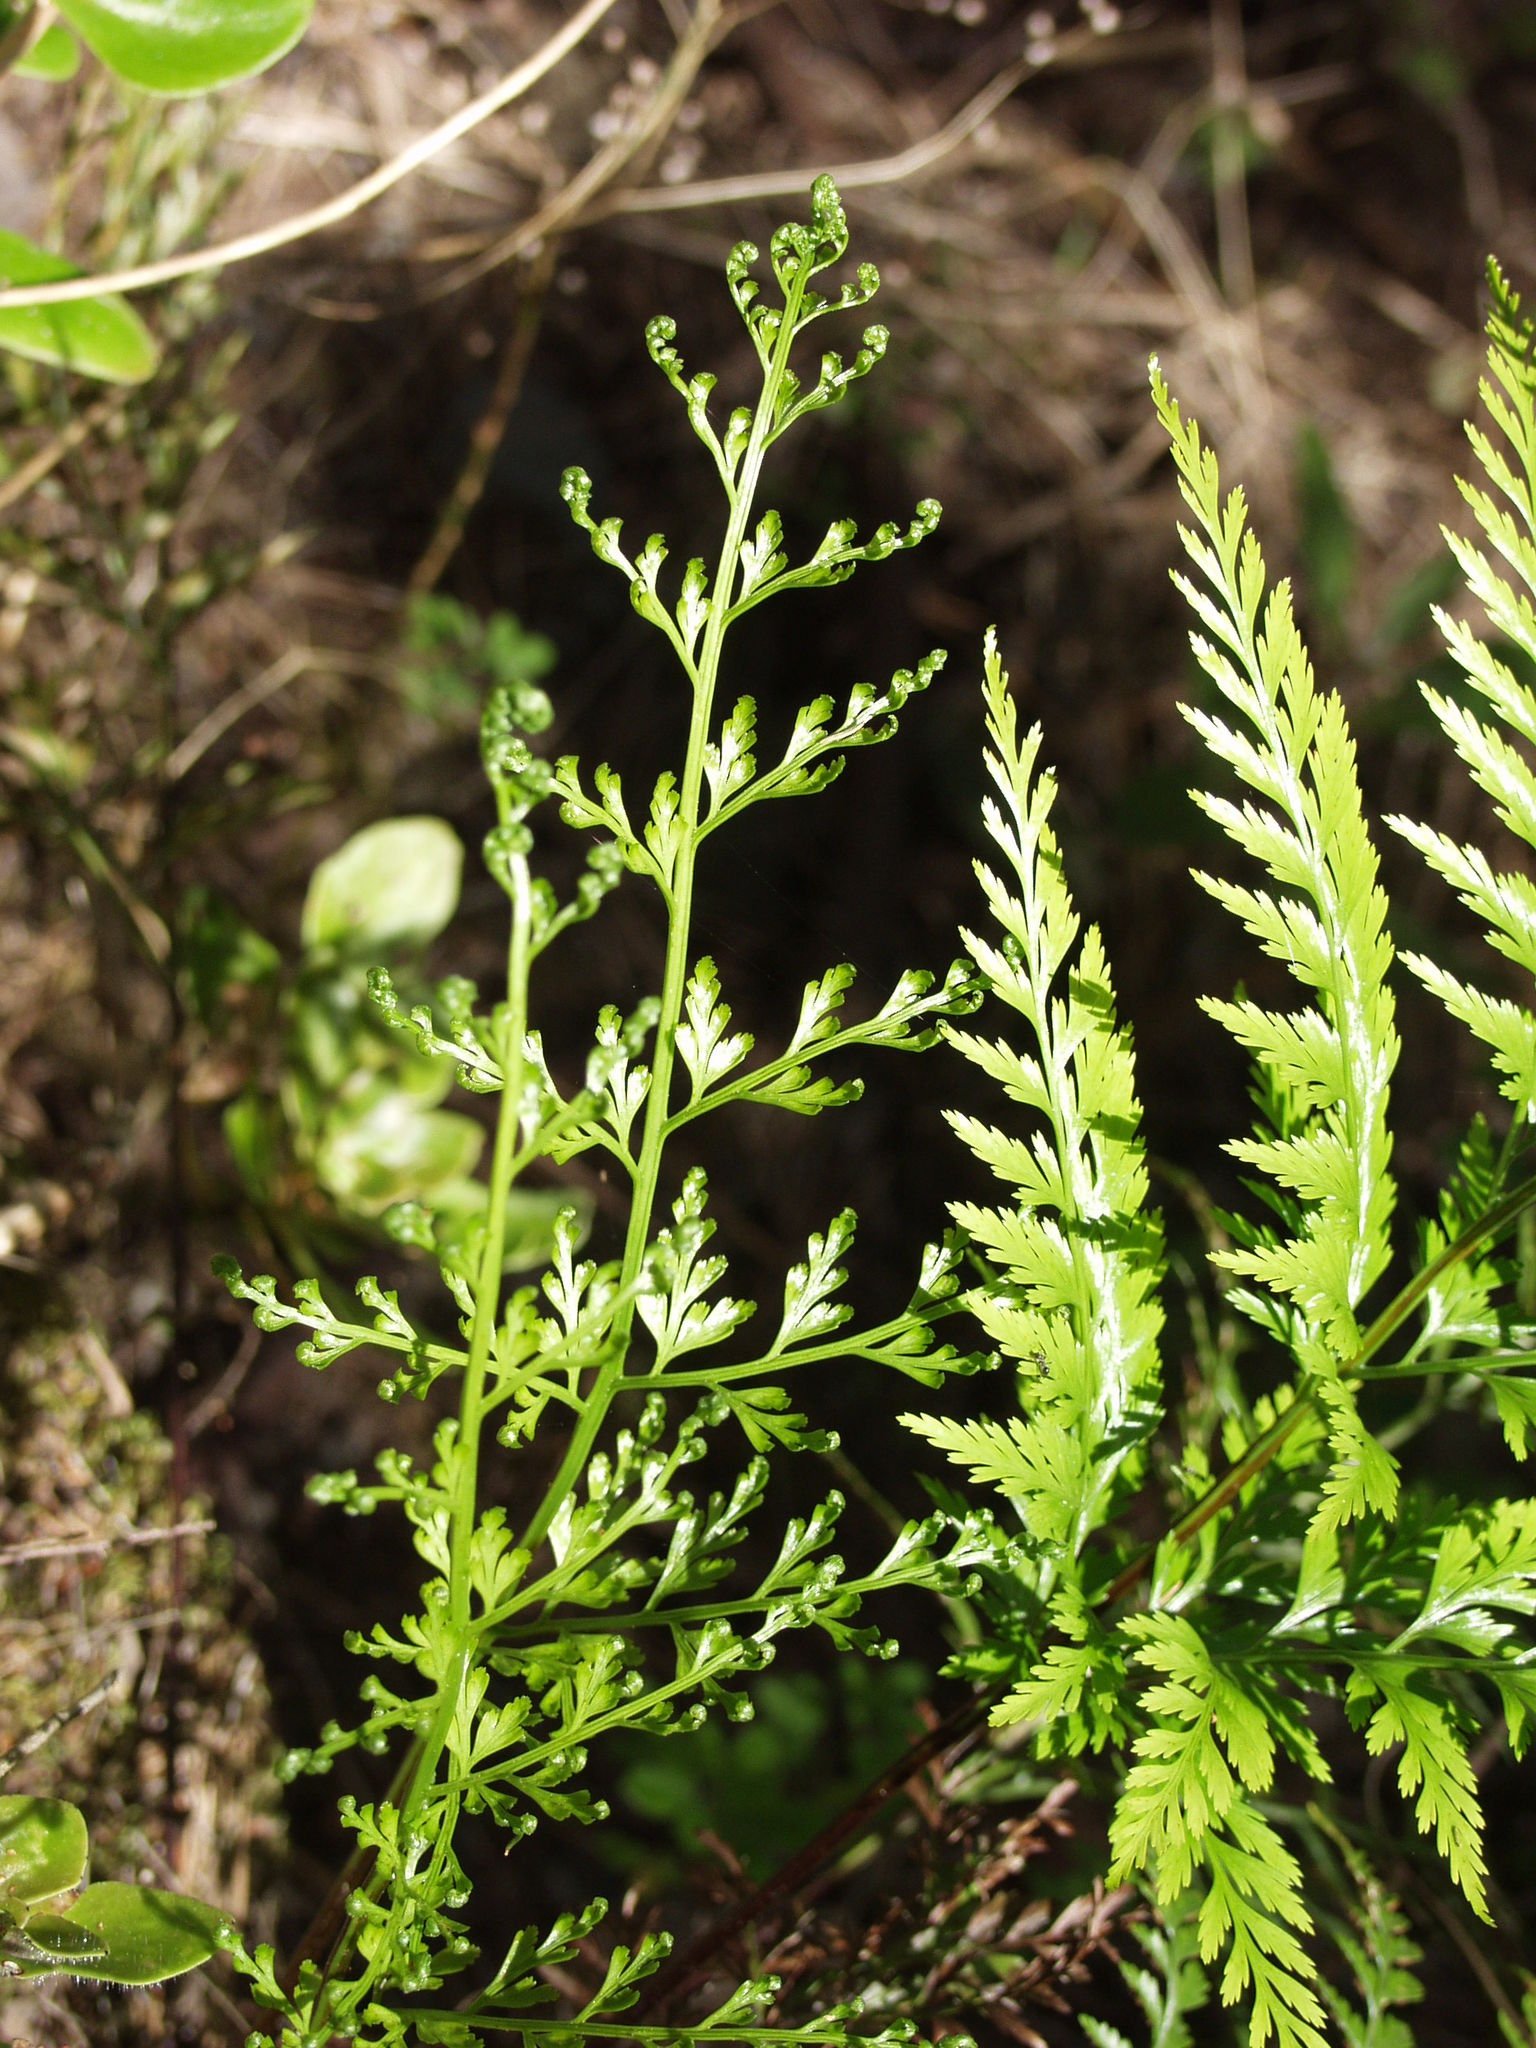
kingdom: Plantae
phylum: Tracheophyta
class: Polypodiopsida
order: Polypodiales
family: Aspleniaceae
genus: Asplenium
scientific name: Asplenium onopteris
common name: Irish spleenwort
